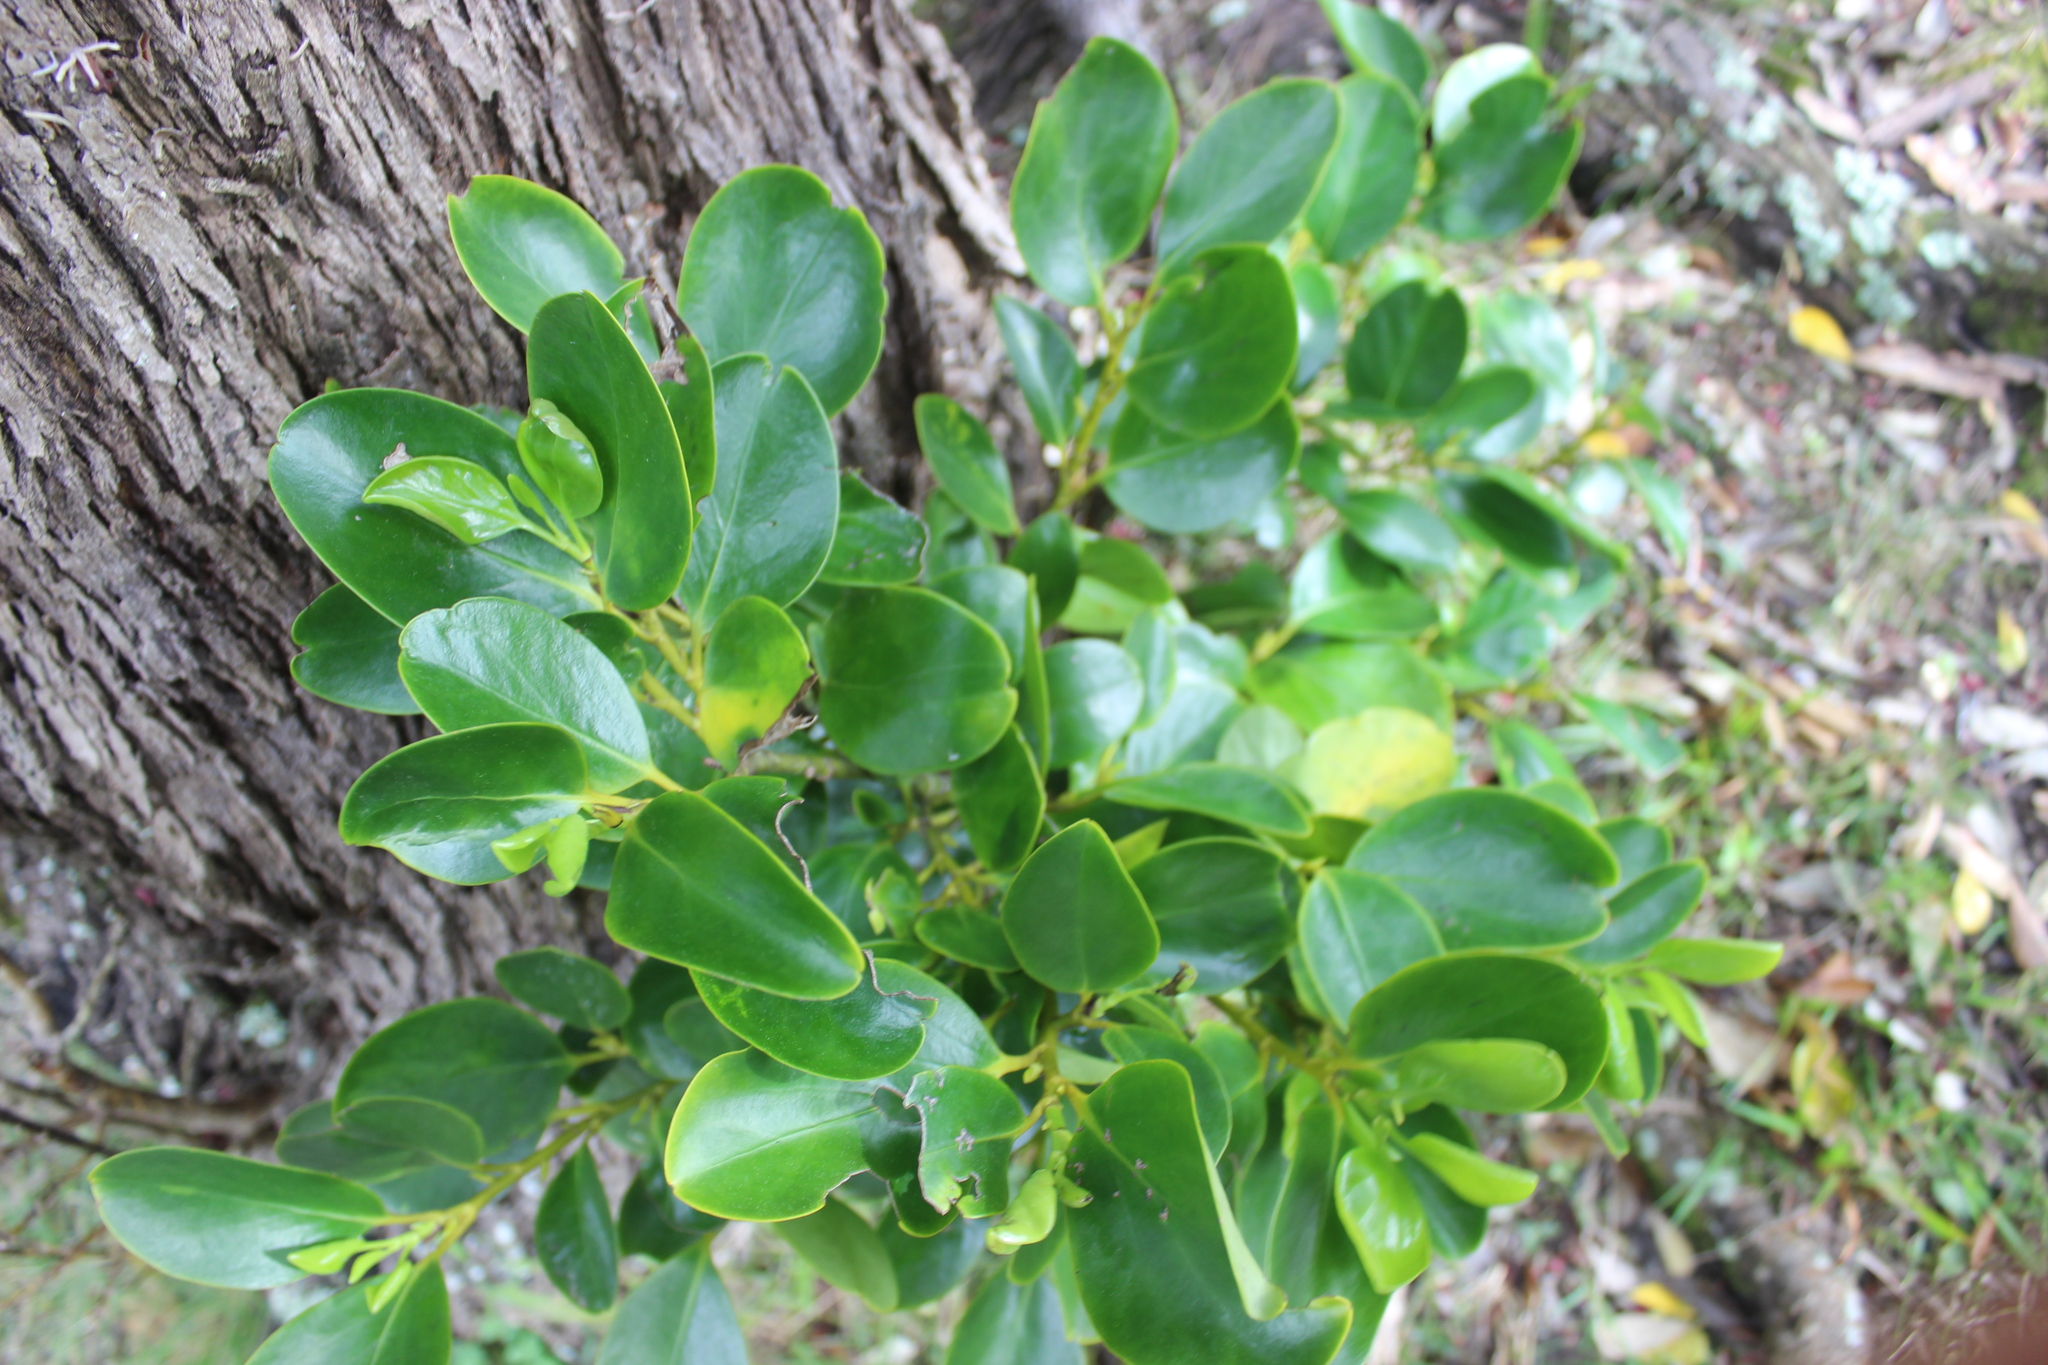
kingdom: Plantae
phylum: Tracheophyta
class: Magnoliopsida
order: Apiales
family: Griseliniaceae
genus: Griselinia
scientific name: Griselinia littoralis
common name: New zealand broadleaf
